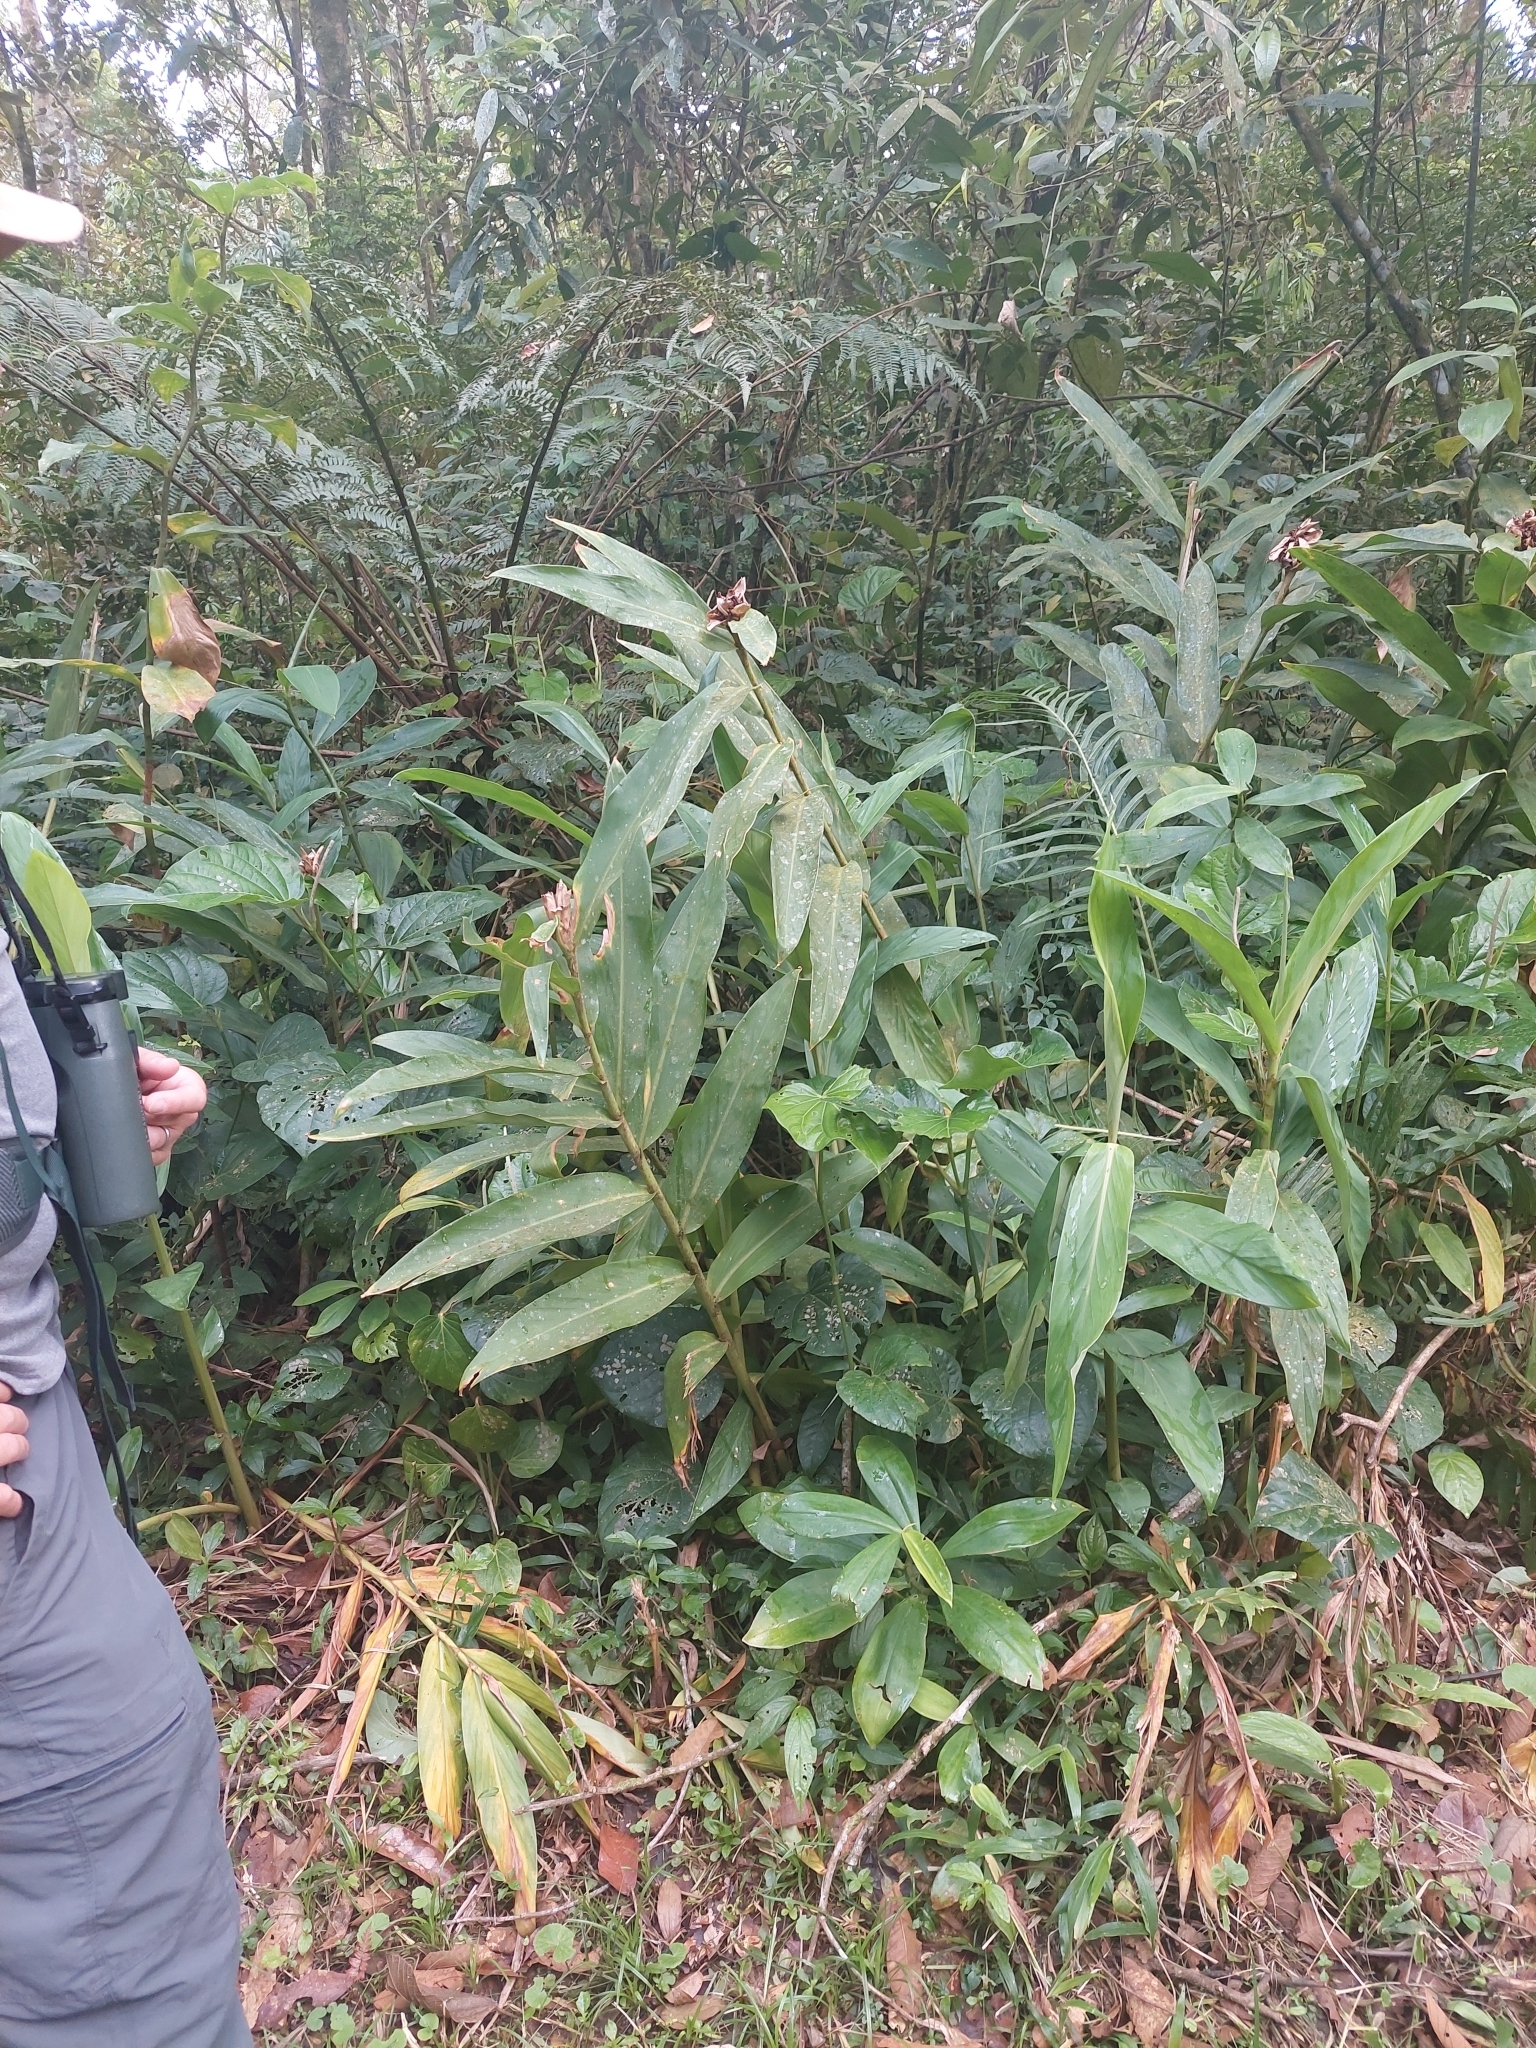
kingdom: Plantae
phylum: Tracheophyta
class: Liliopsida
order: Zingiberales
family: Zingiberaceae
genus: Hedychium
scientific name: Hedychium coronarium
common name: White garland-lily
